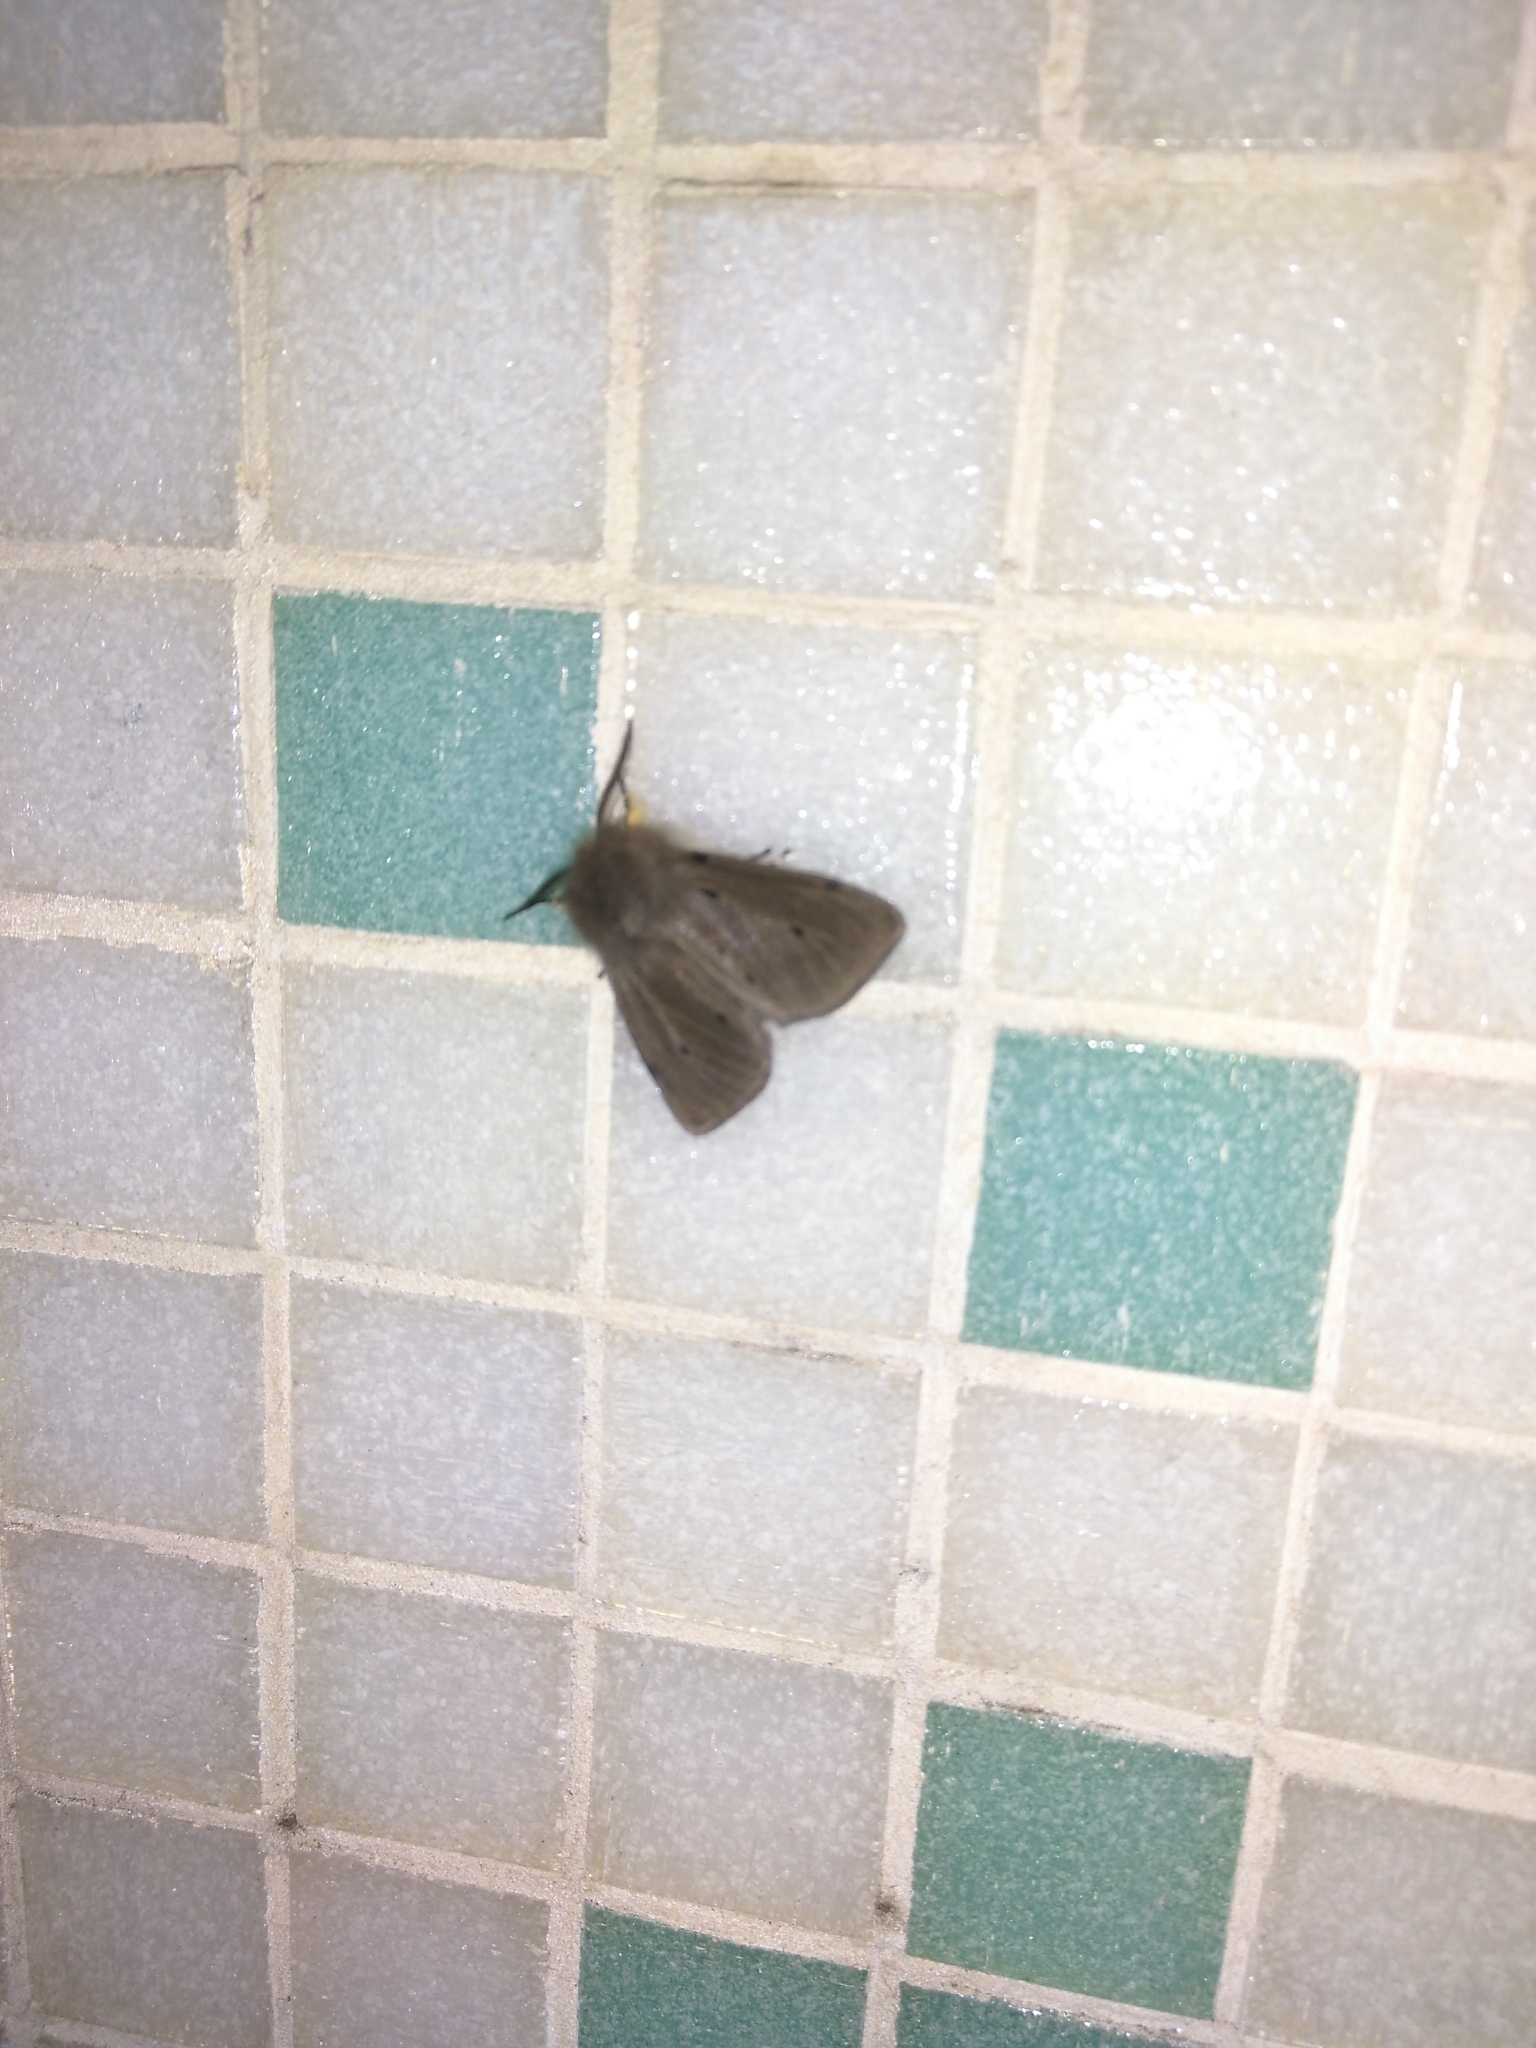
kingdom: Animalia
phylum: Arthropoda
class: Insecta
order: Lepidoptera
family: Erebidae
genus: Diaphora
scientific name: Diaphora mendica
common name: Muslin moth
